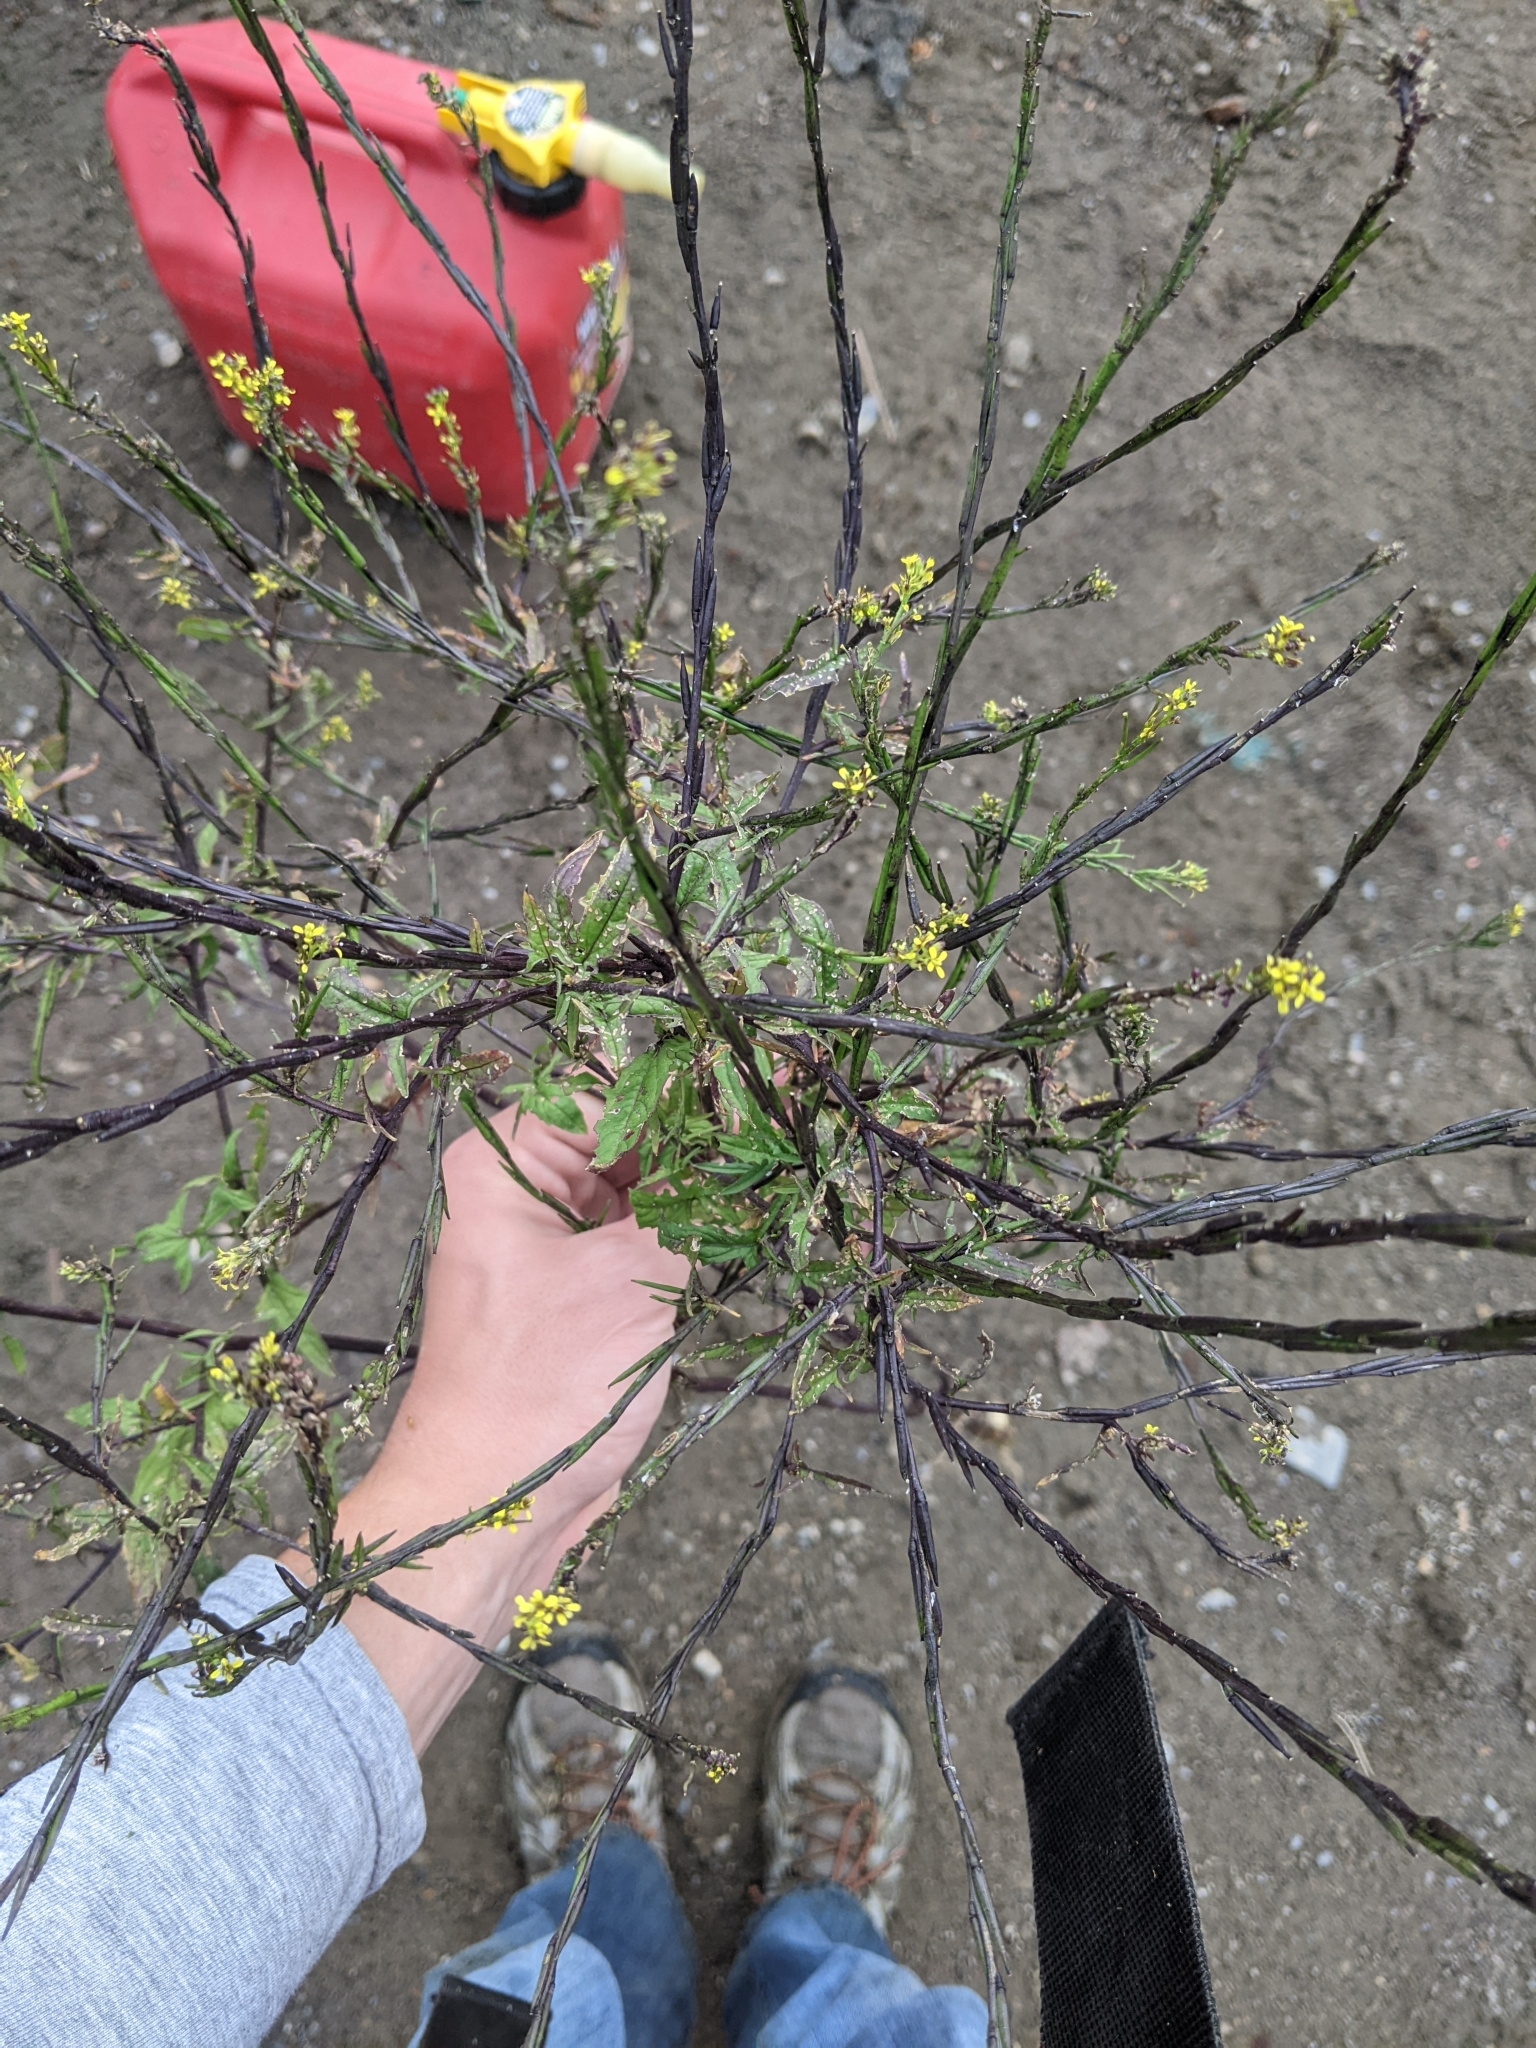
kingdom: Plantae
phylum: Tracheophyta
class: Magnoliopsida
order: Brassicales
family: Brassicaceae
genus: Sisymbrium
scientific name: Sisymbrium officinale
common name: Hedge mustard
